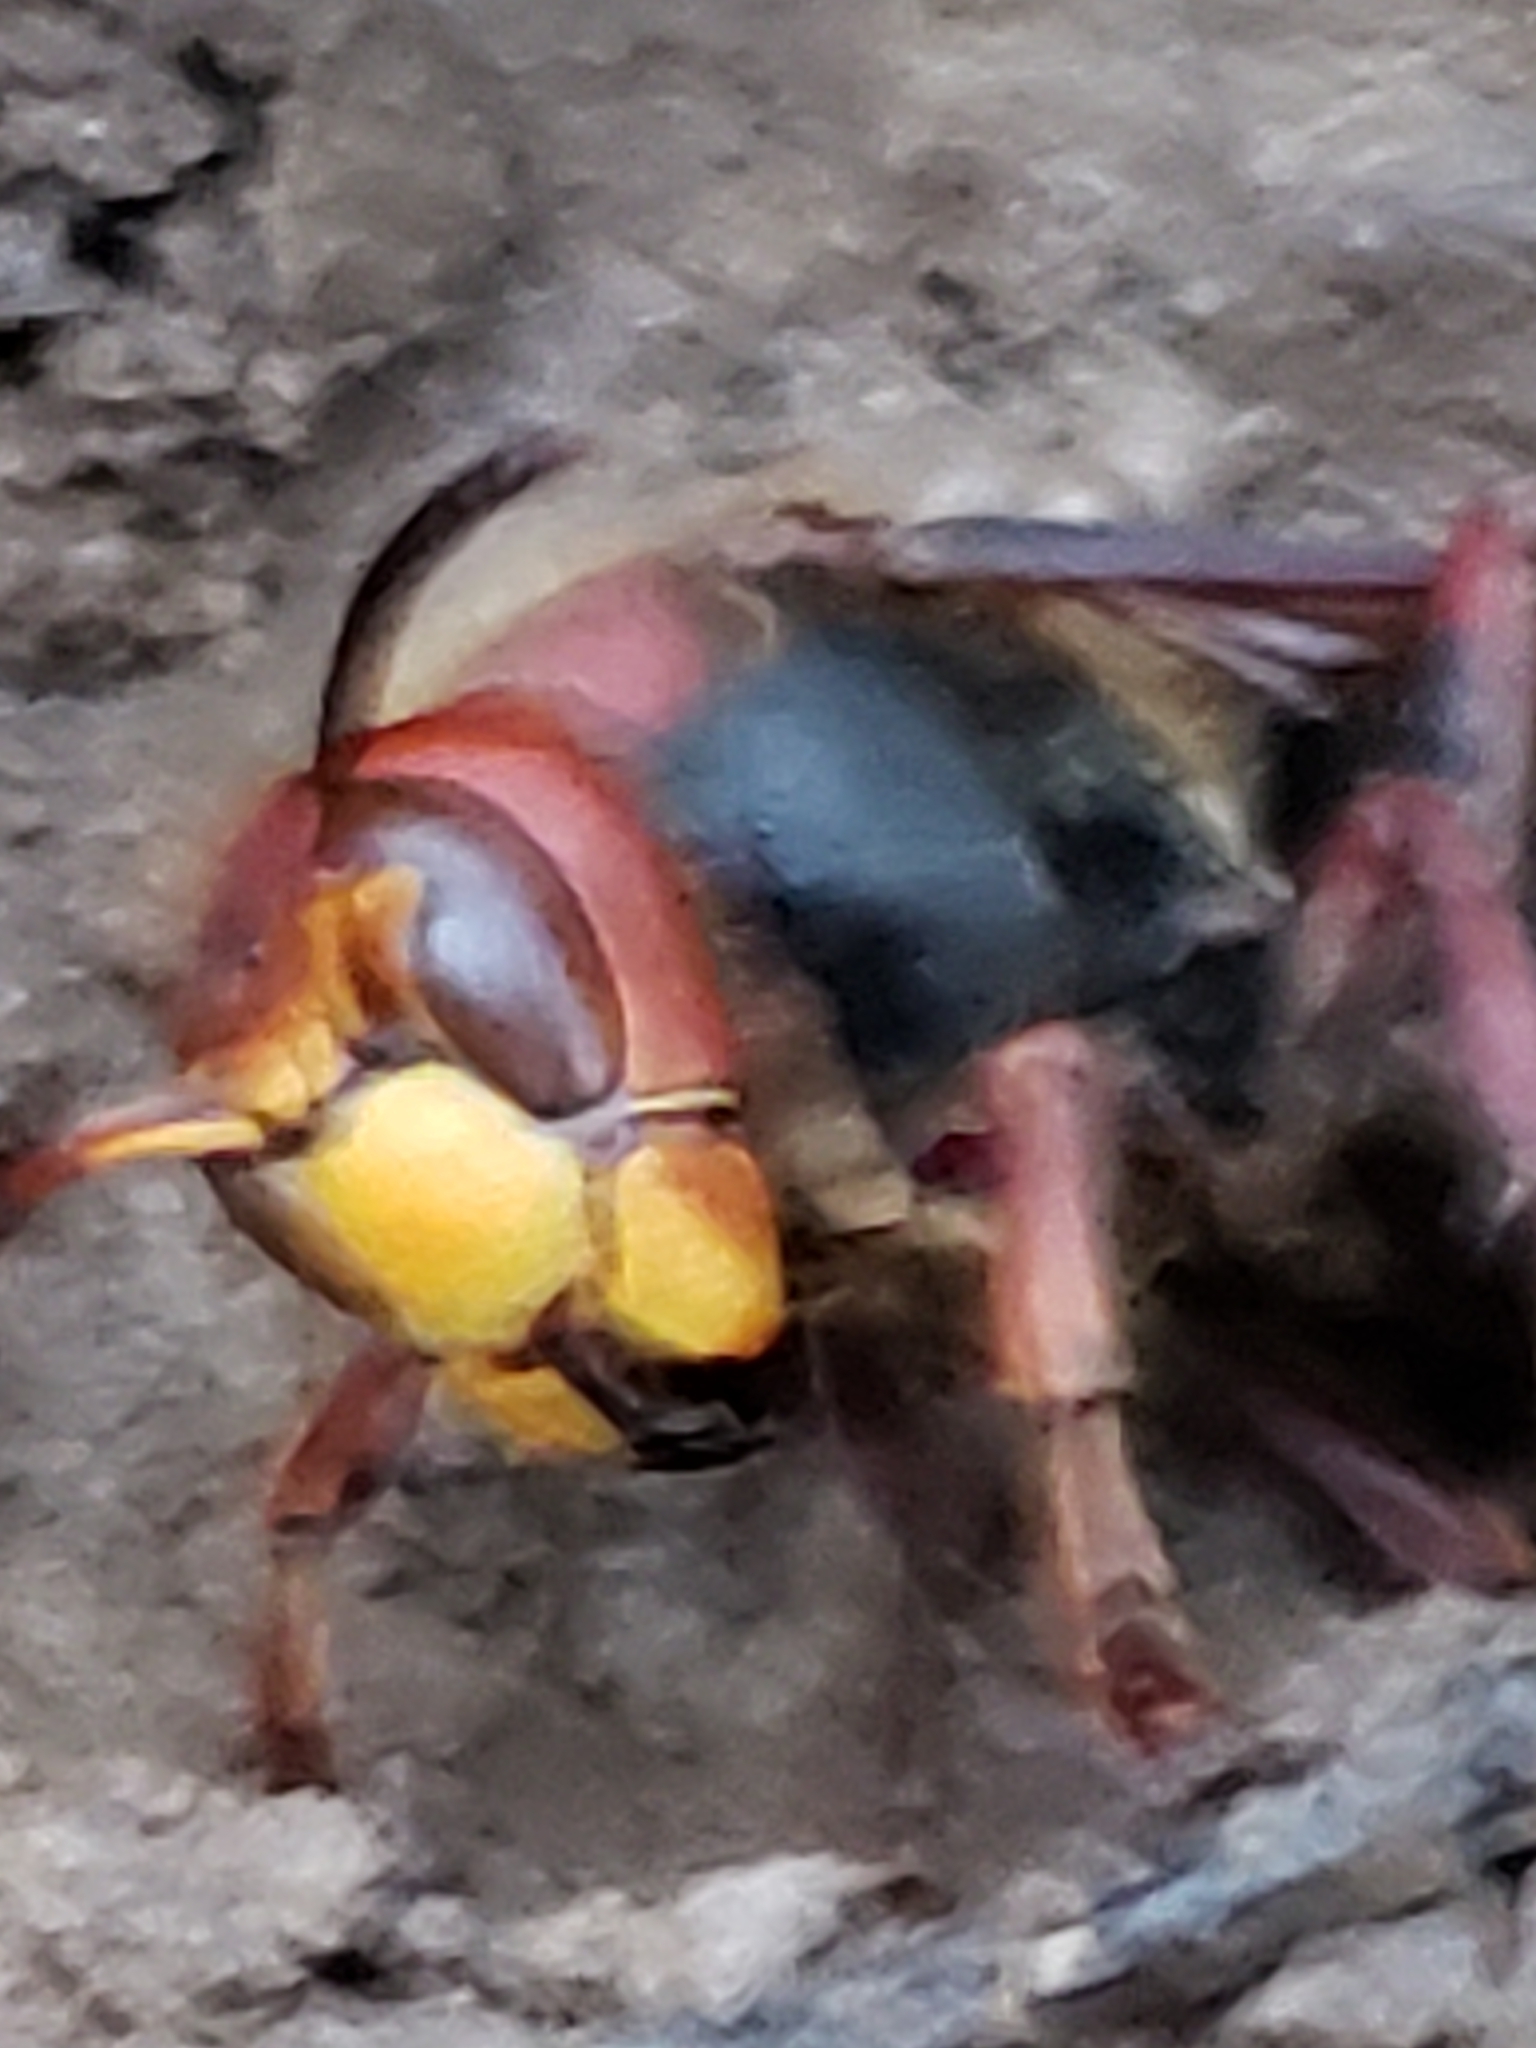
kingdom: Animalia
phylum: Arthropoda
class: Insecta
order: Hymenoptera
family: Vespidae
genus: Vespa
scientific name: Vespa crabro
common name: Hornet
